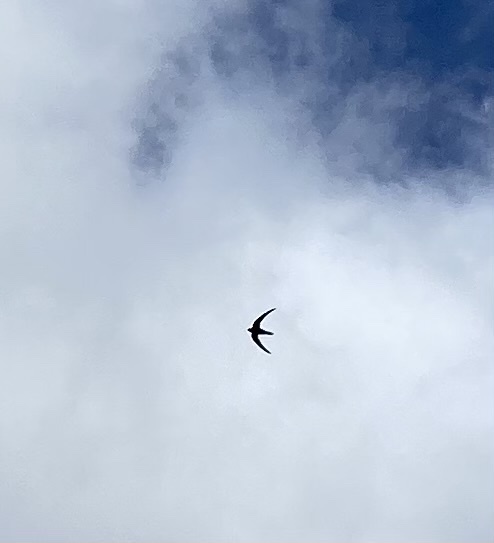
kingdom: Animalia
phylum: Chordata
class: Aves
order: Apodiformes
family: Apodidae
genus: Apus
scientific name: Apus apus
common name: Common swift
